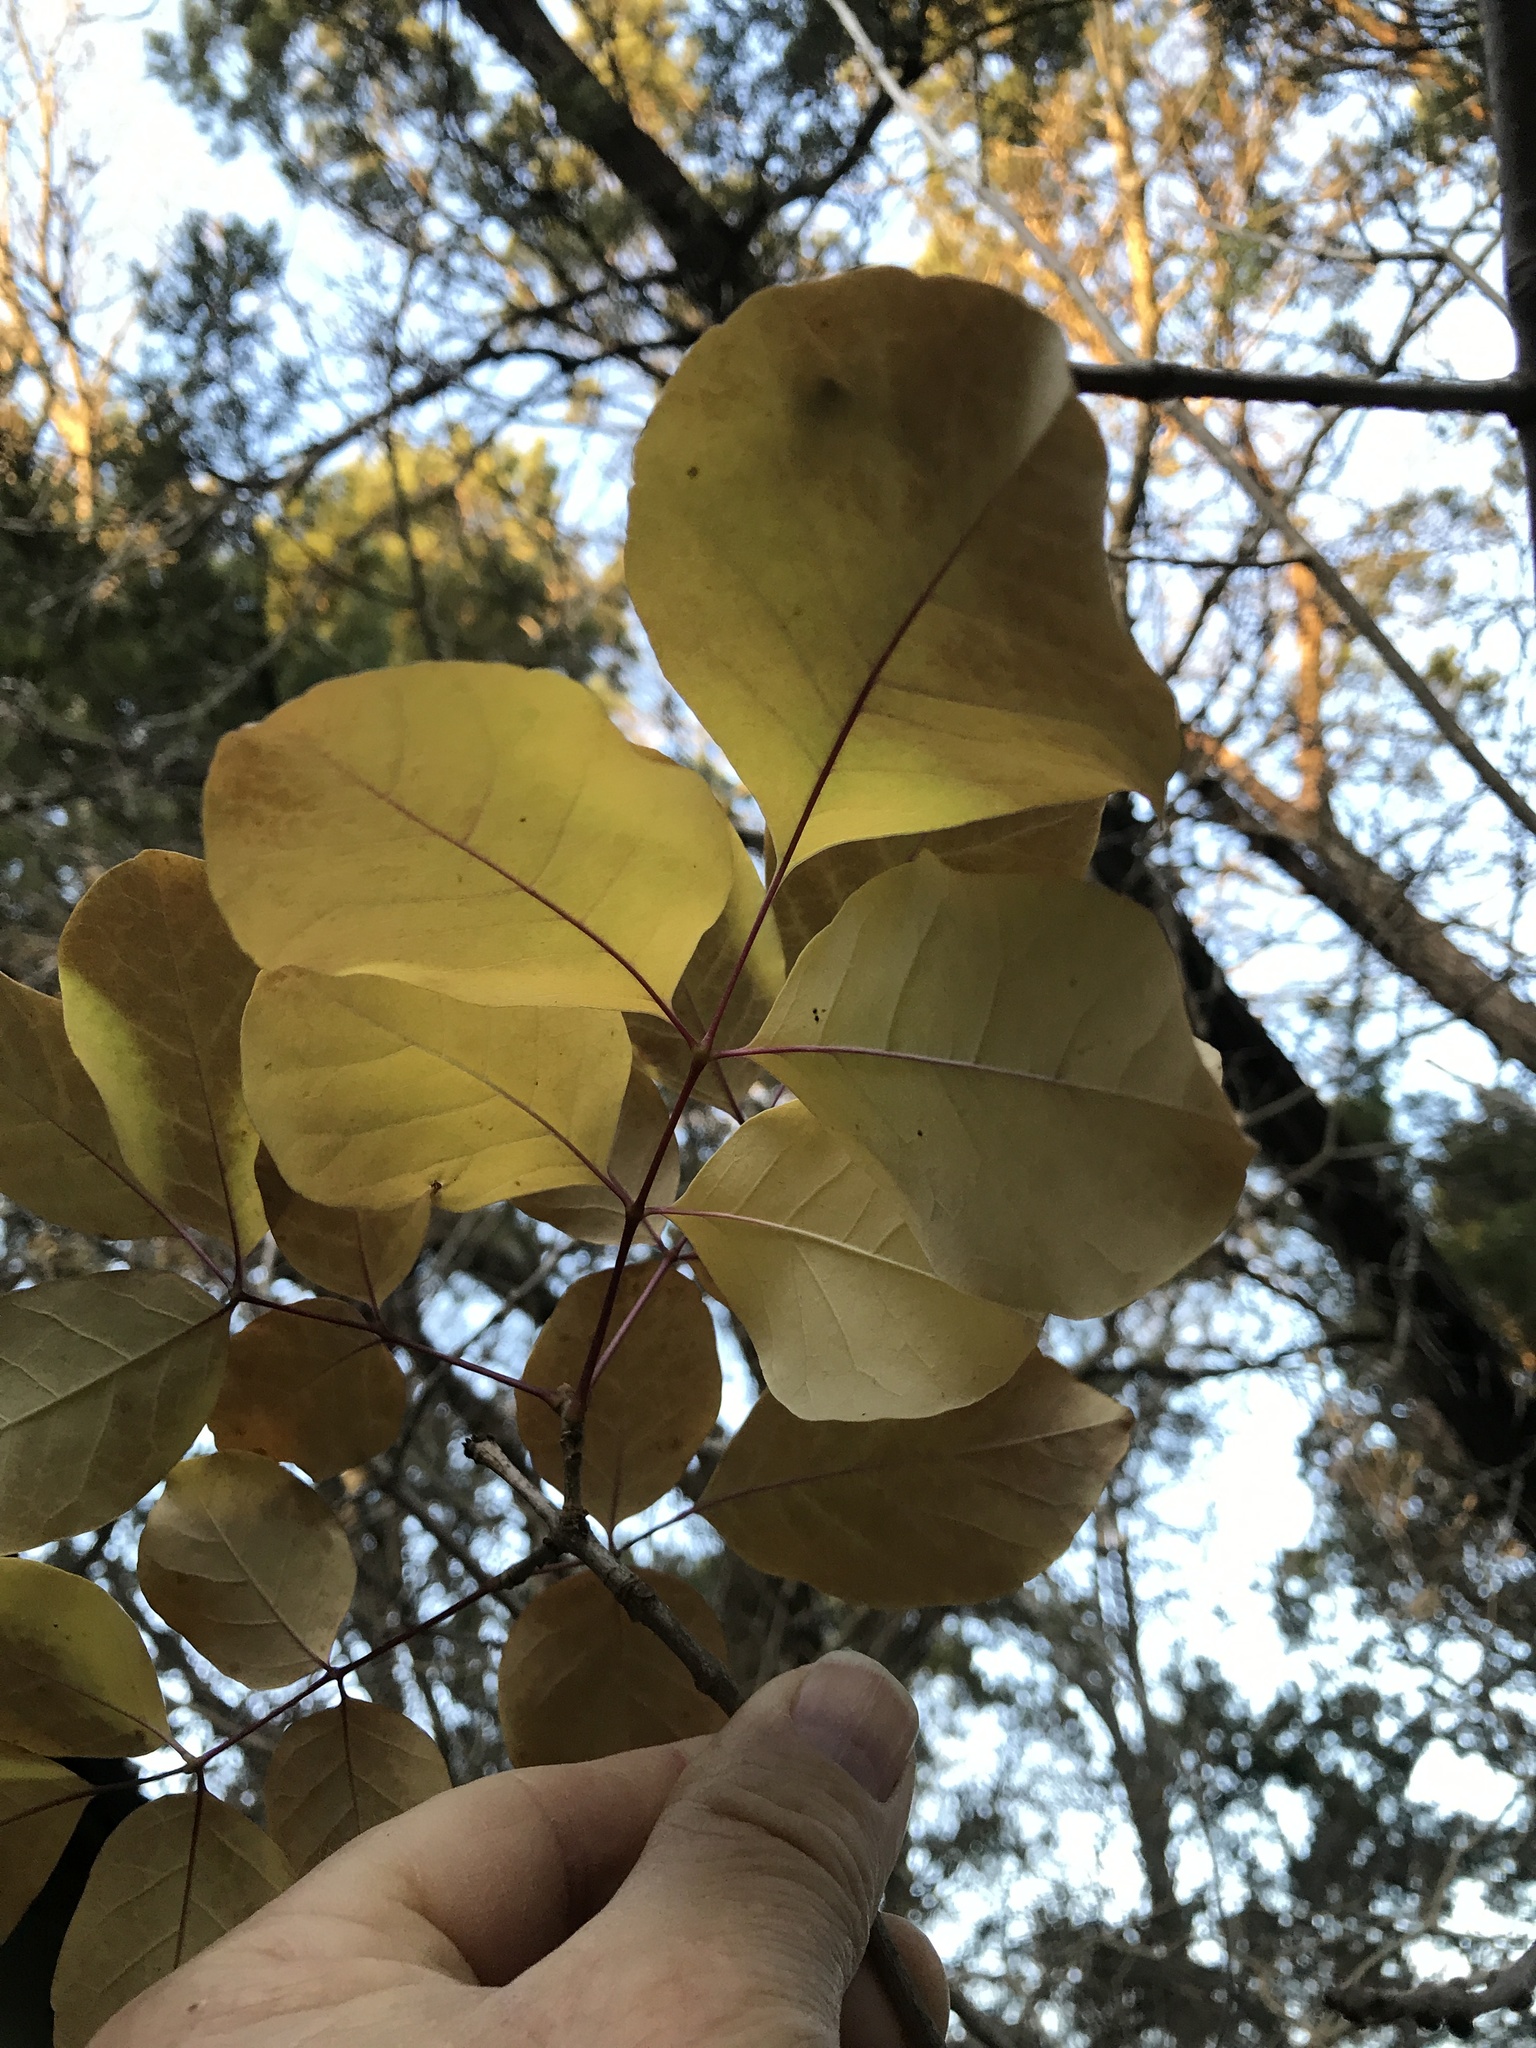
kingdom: Plantae
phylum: Tracheophyta
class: Magnoliopsida
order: Lamiales
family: Oleaceae
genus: Fraxinus
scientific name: Fraxinus albicans
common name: Texas ash
